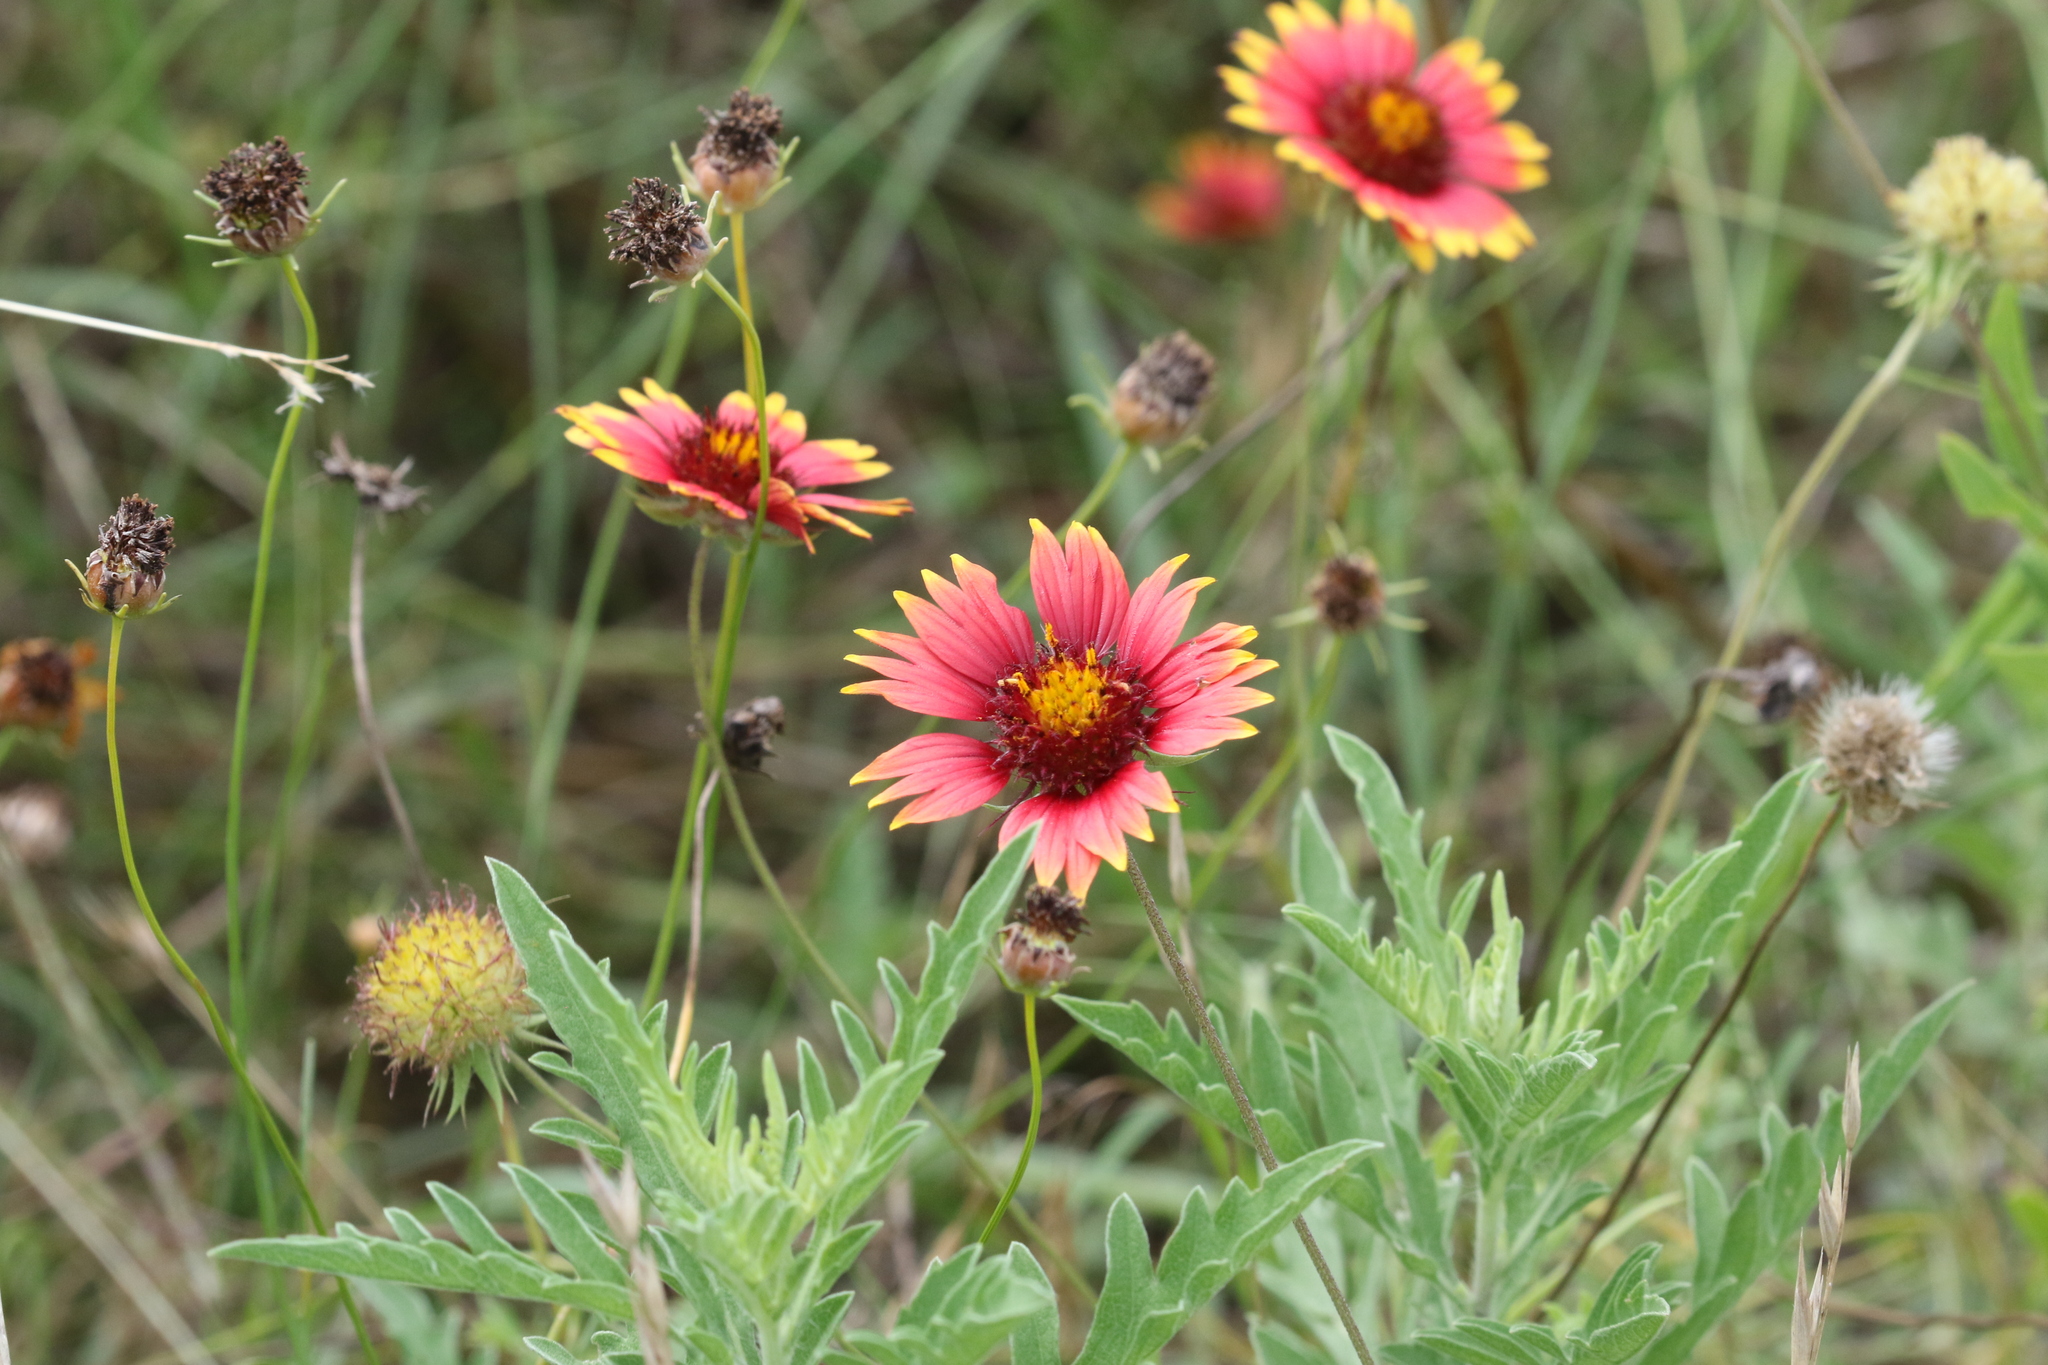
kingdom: Plantae
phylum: Tracheophyta
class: Magnoliopsida
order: Asterales
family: Asteraceae
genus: Gaillardia
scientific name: Gaillardia pulchella
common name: Firewheel
